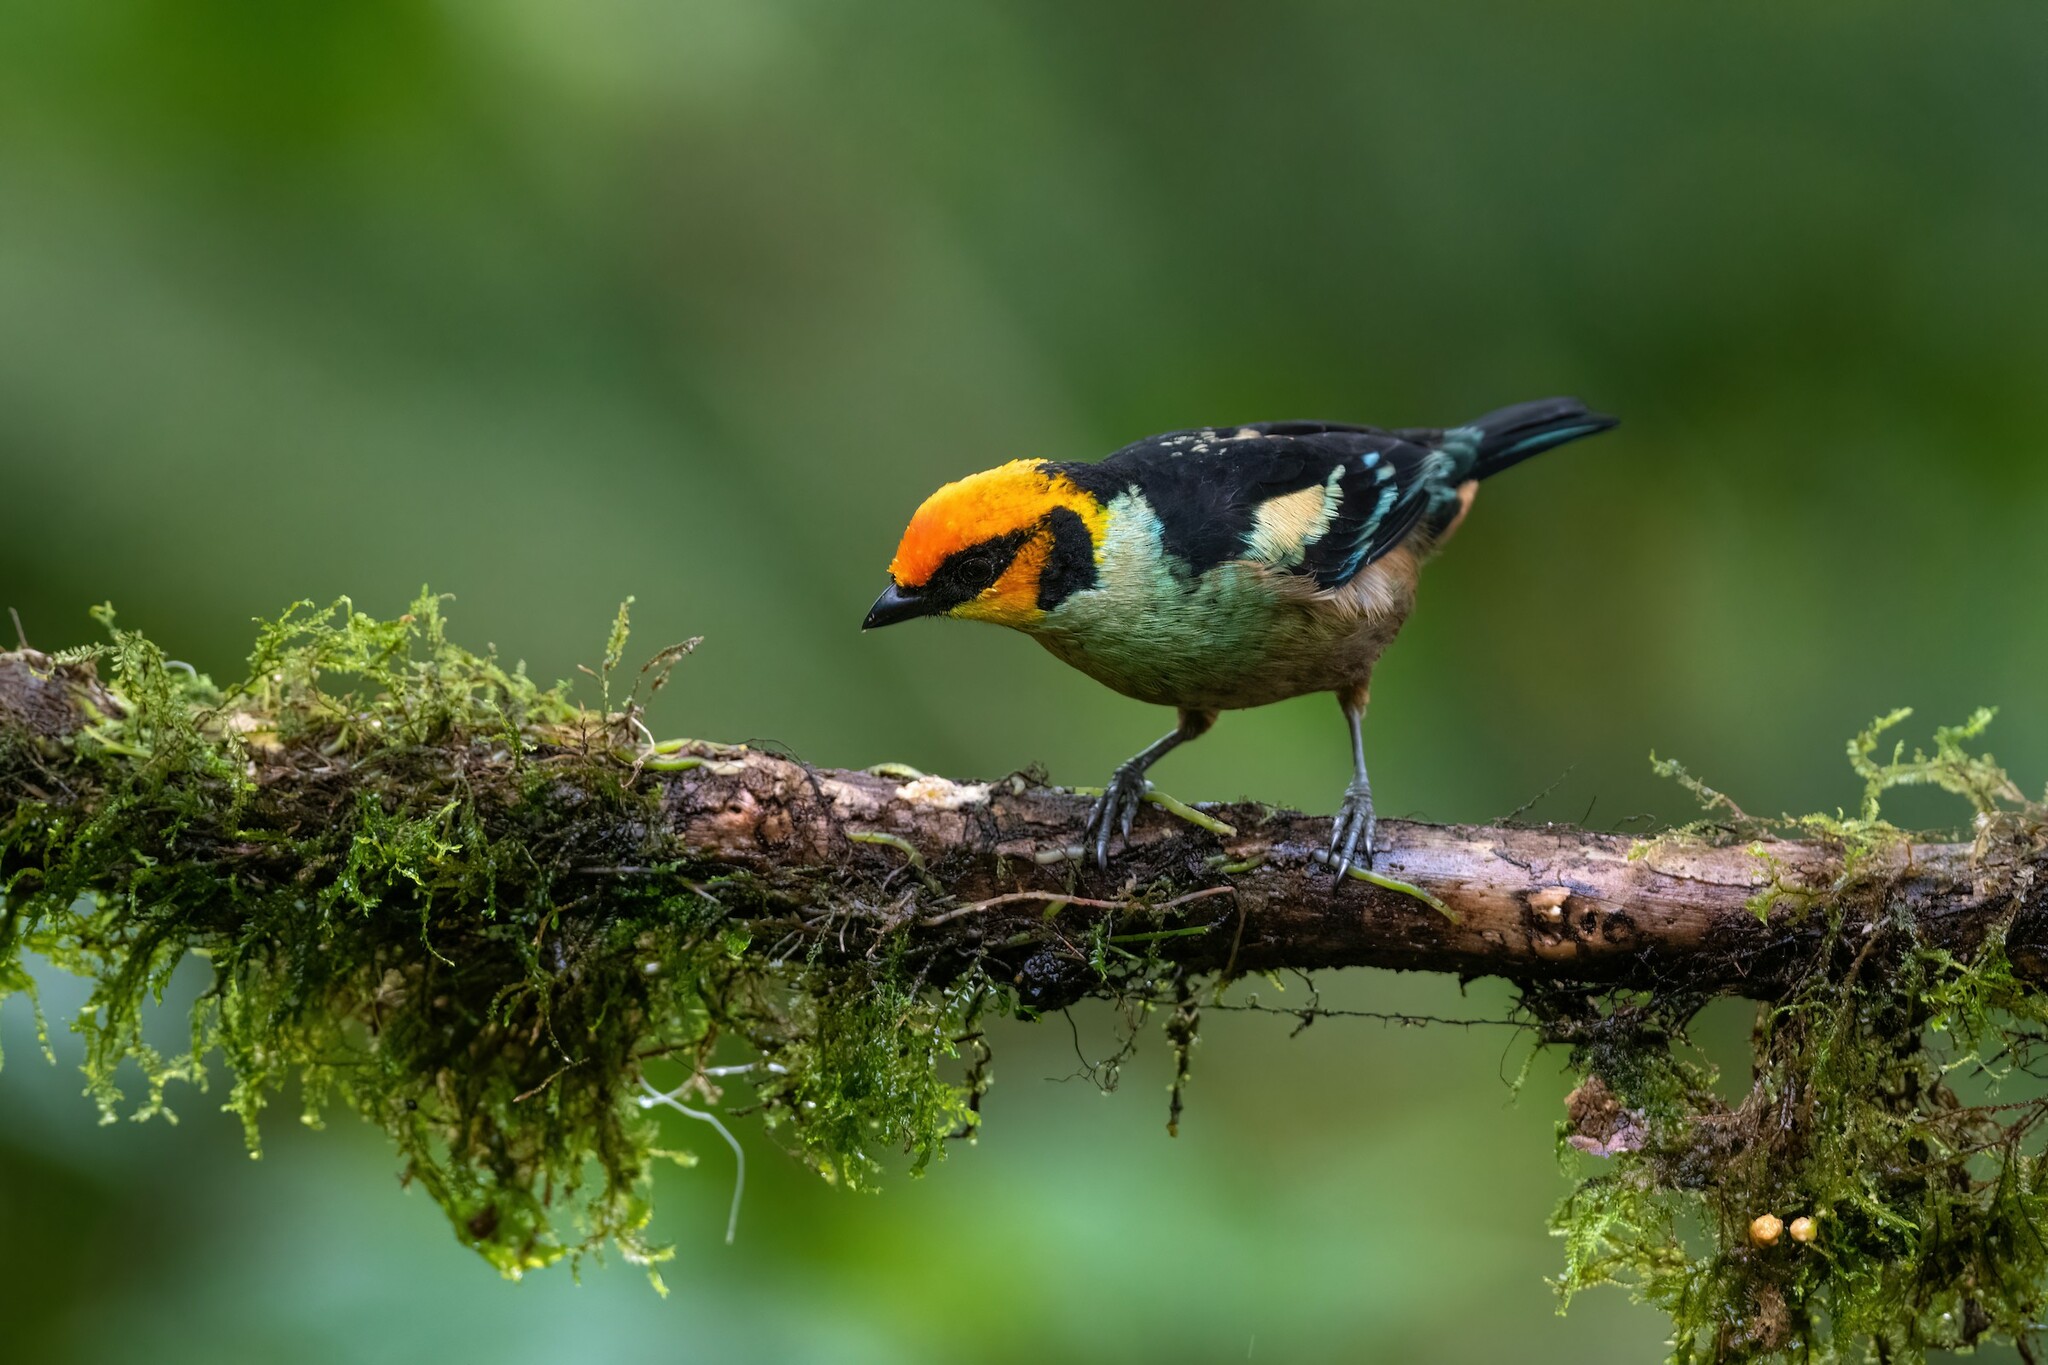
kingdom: Animalia
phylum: Chordata
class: Aves
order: Passeriformes
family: Thraupidae
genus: Tangara
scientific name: Tangara parzudakii
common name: Flame-faced tanager
